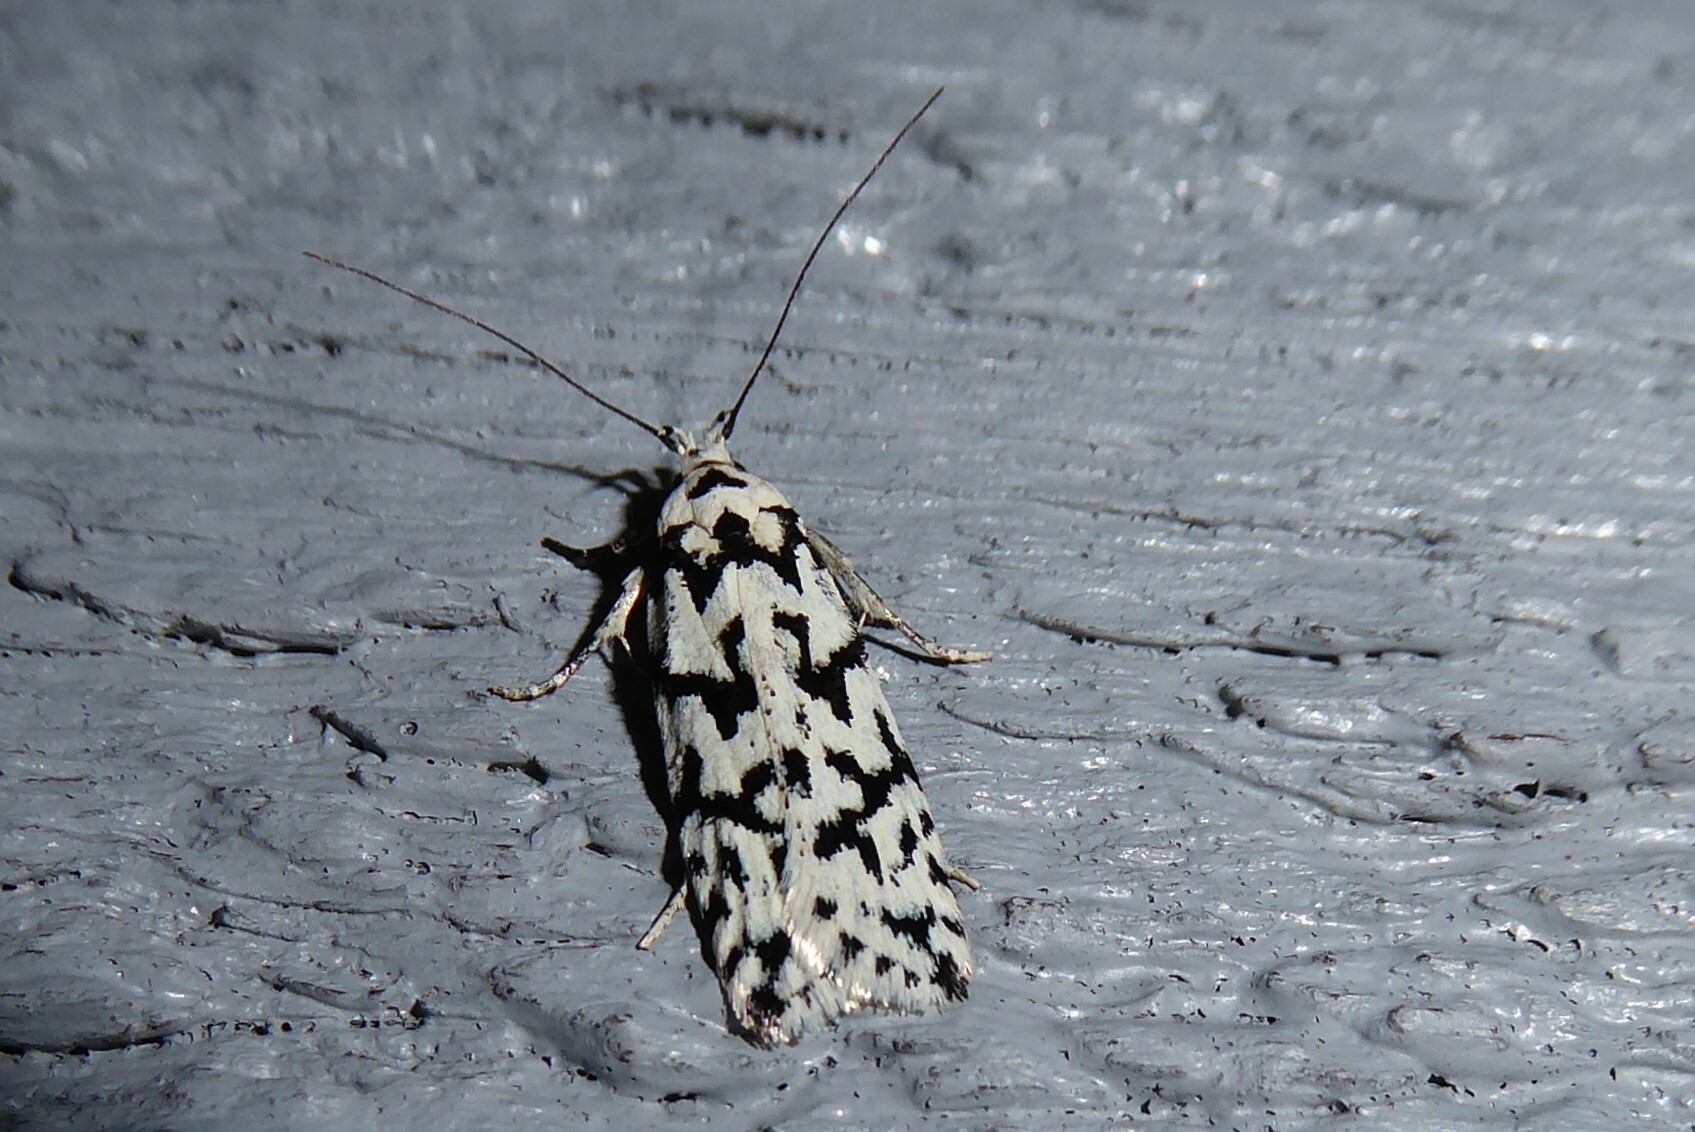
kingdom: Animalia
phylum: Arthropoda
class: Insecta
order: Lepidoptera
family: Oecophoridae
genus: Izatha
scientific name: Izatha katadiktya
